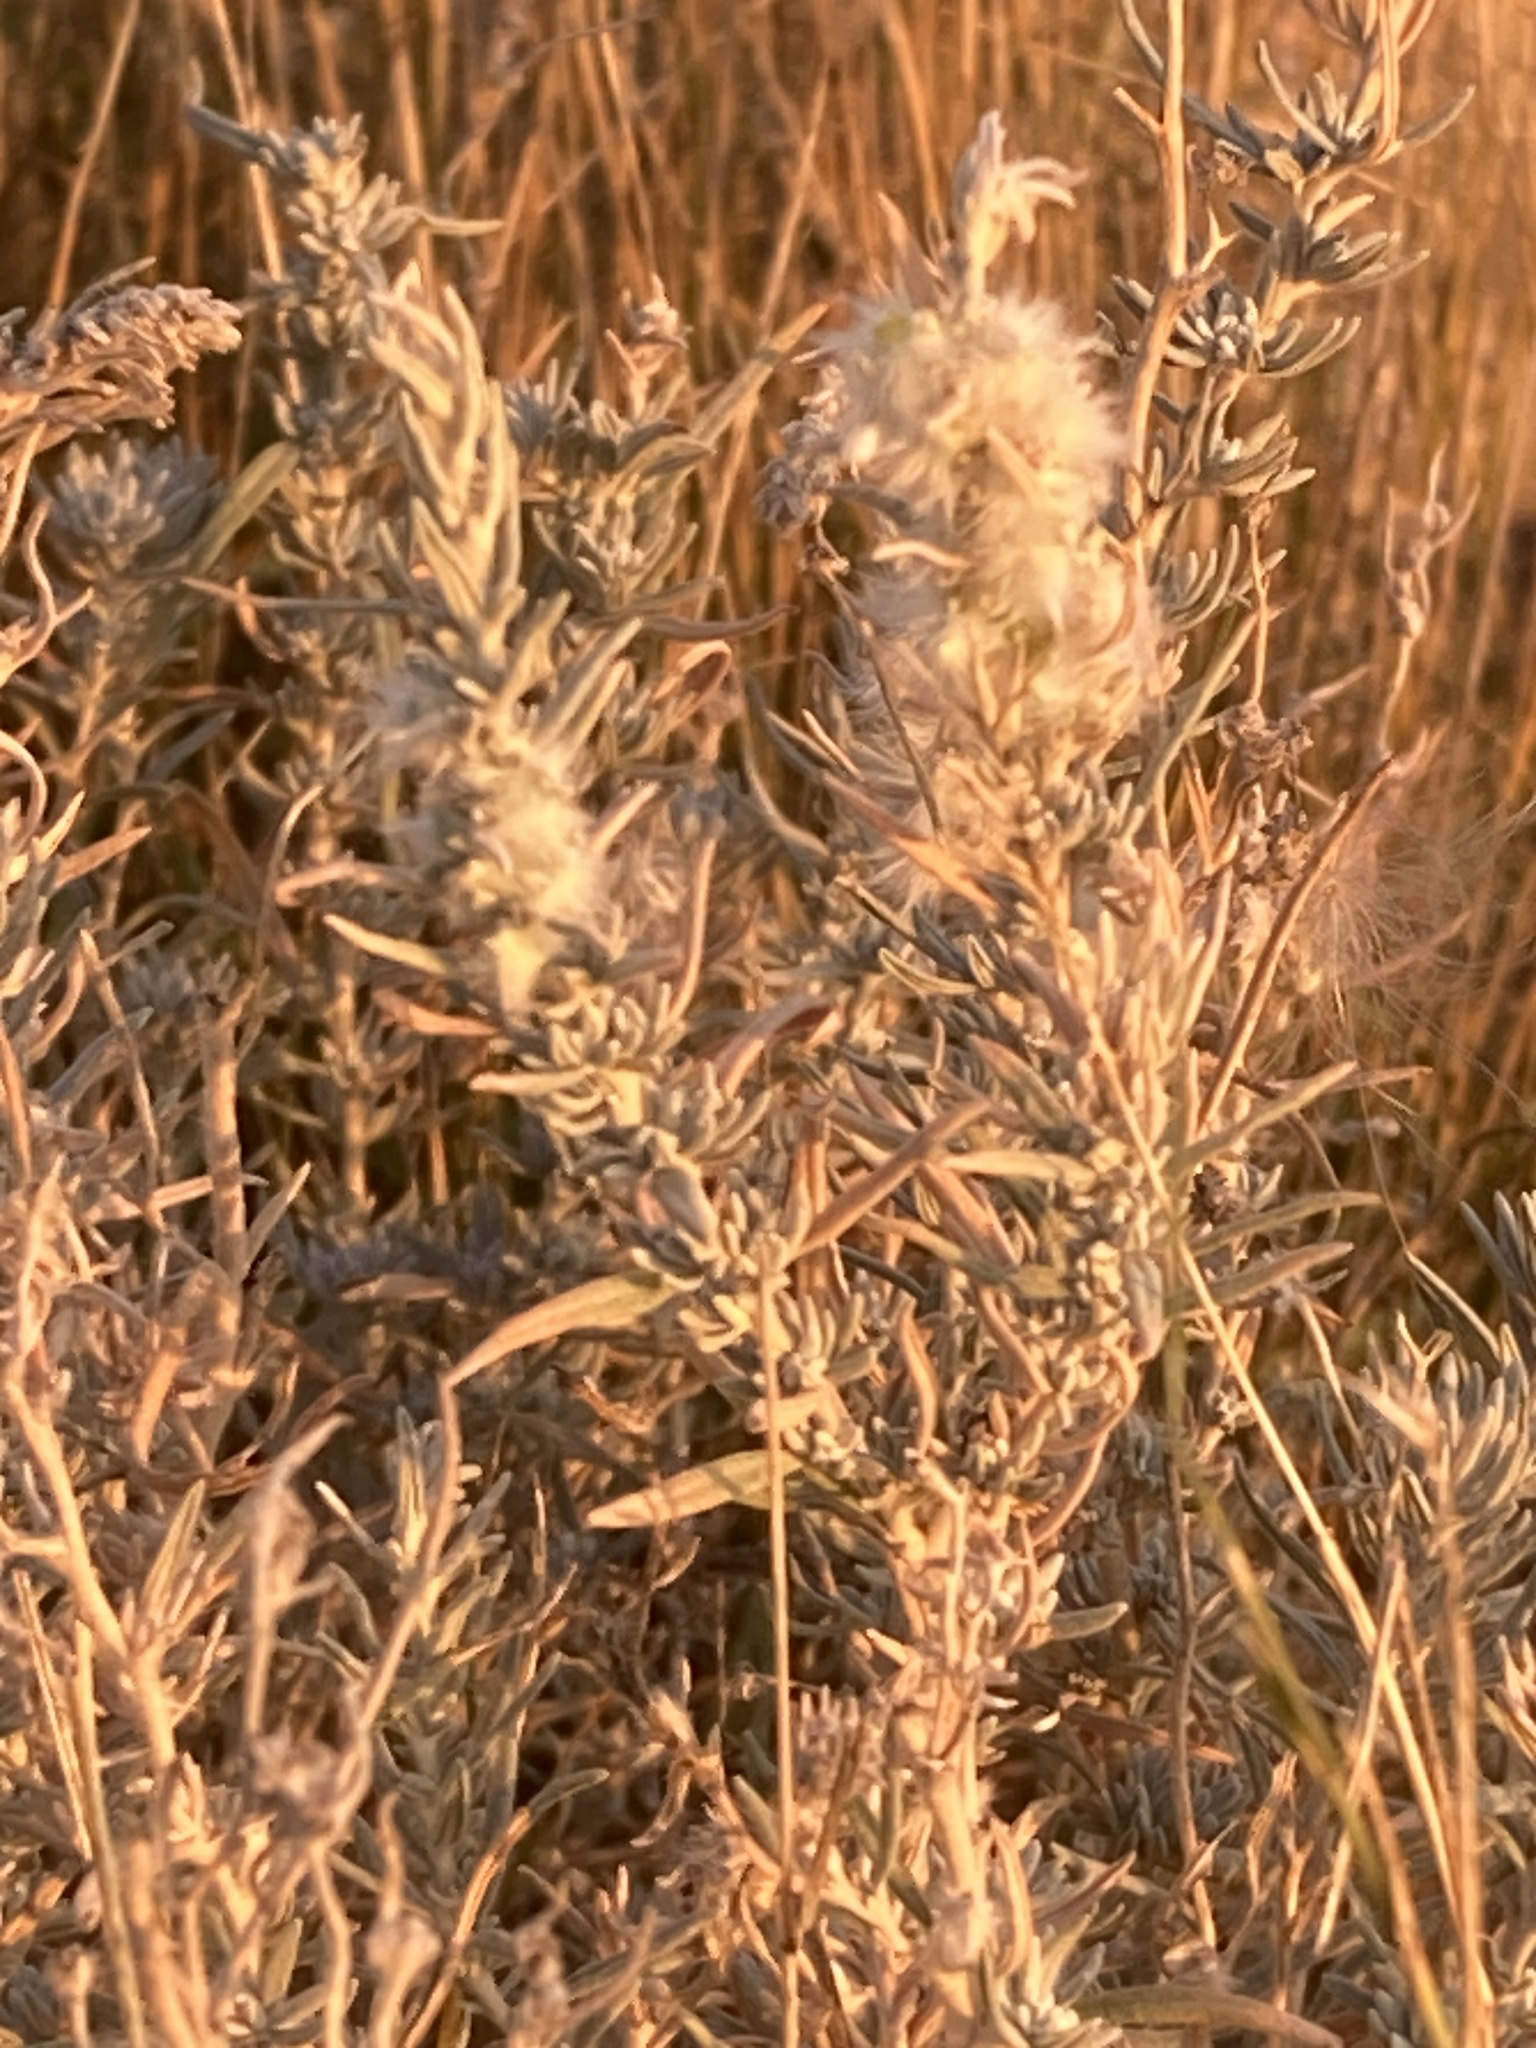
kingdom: Plantae
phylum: Tracheophyta
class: Magnoliopsida
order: Caryophyllales
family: Amaranthaceae
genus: Krascheninnikovia
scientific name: Krascheninnikovia lanata
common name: Winterfat
